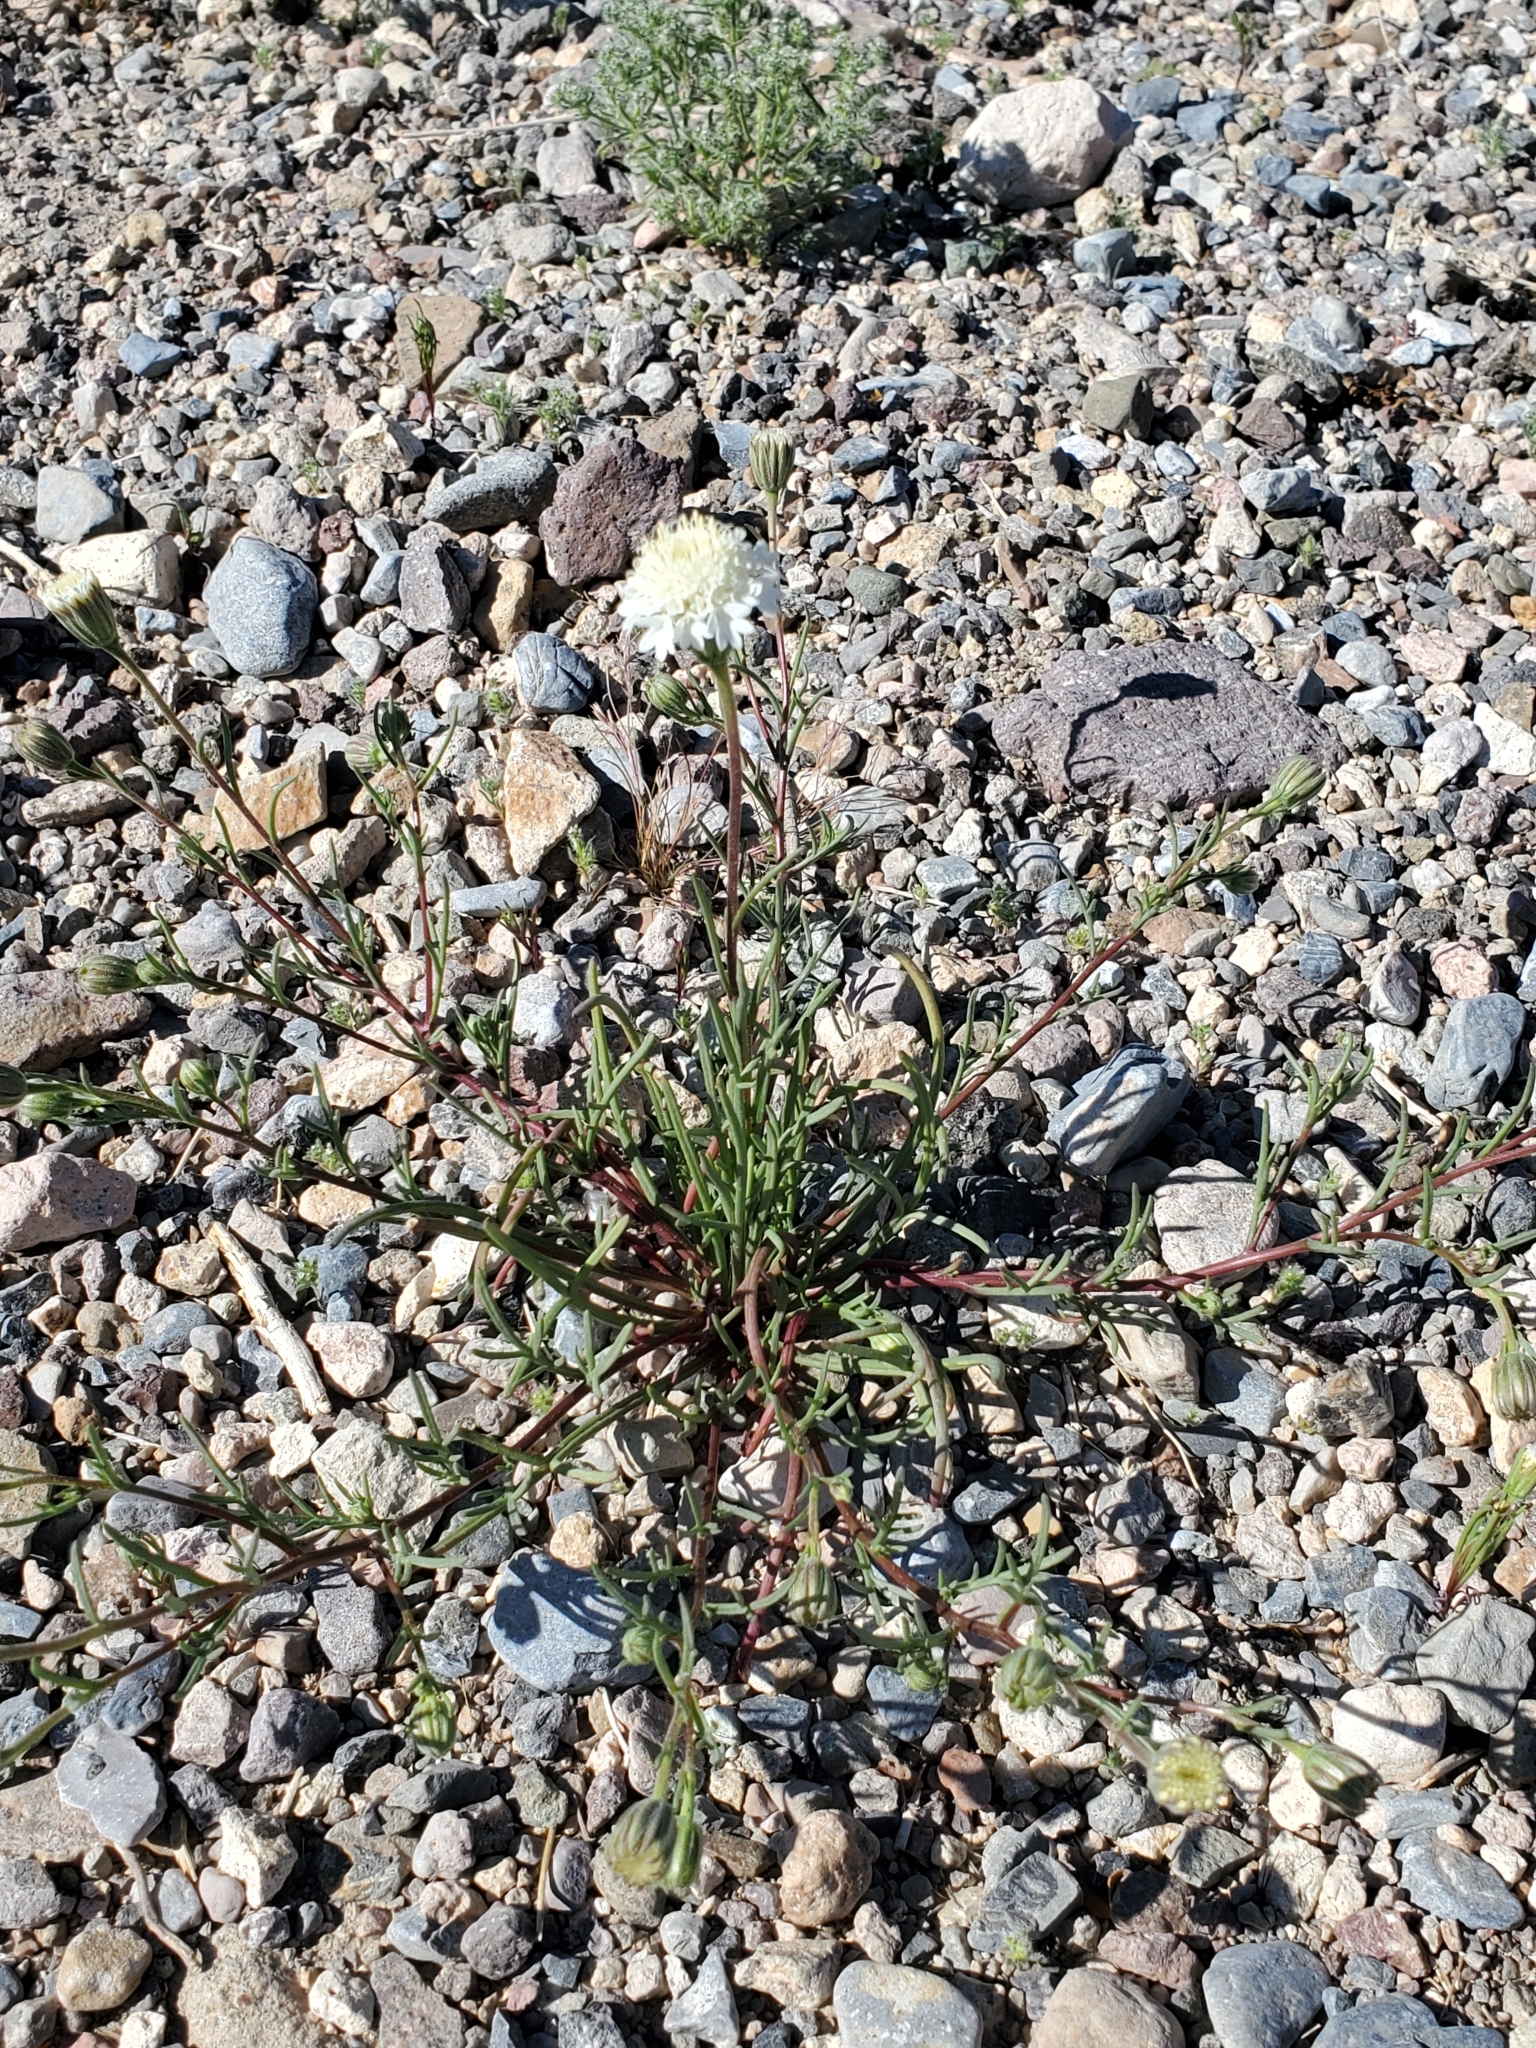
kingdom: Plantae
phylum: Tracheophyta
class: Magnoliopsida
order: Asterales
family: Asteraceae
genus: Chaenactis
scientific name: Chaenactis fremontii
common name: Fremont pincushion
